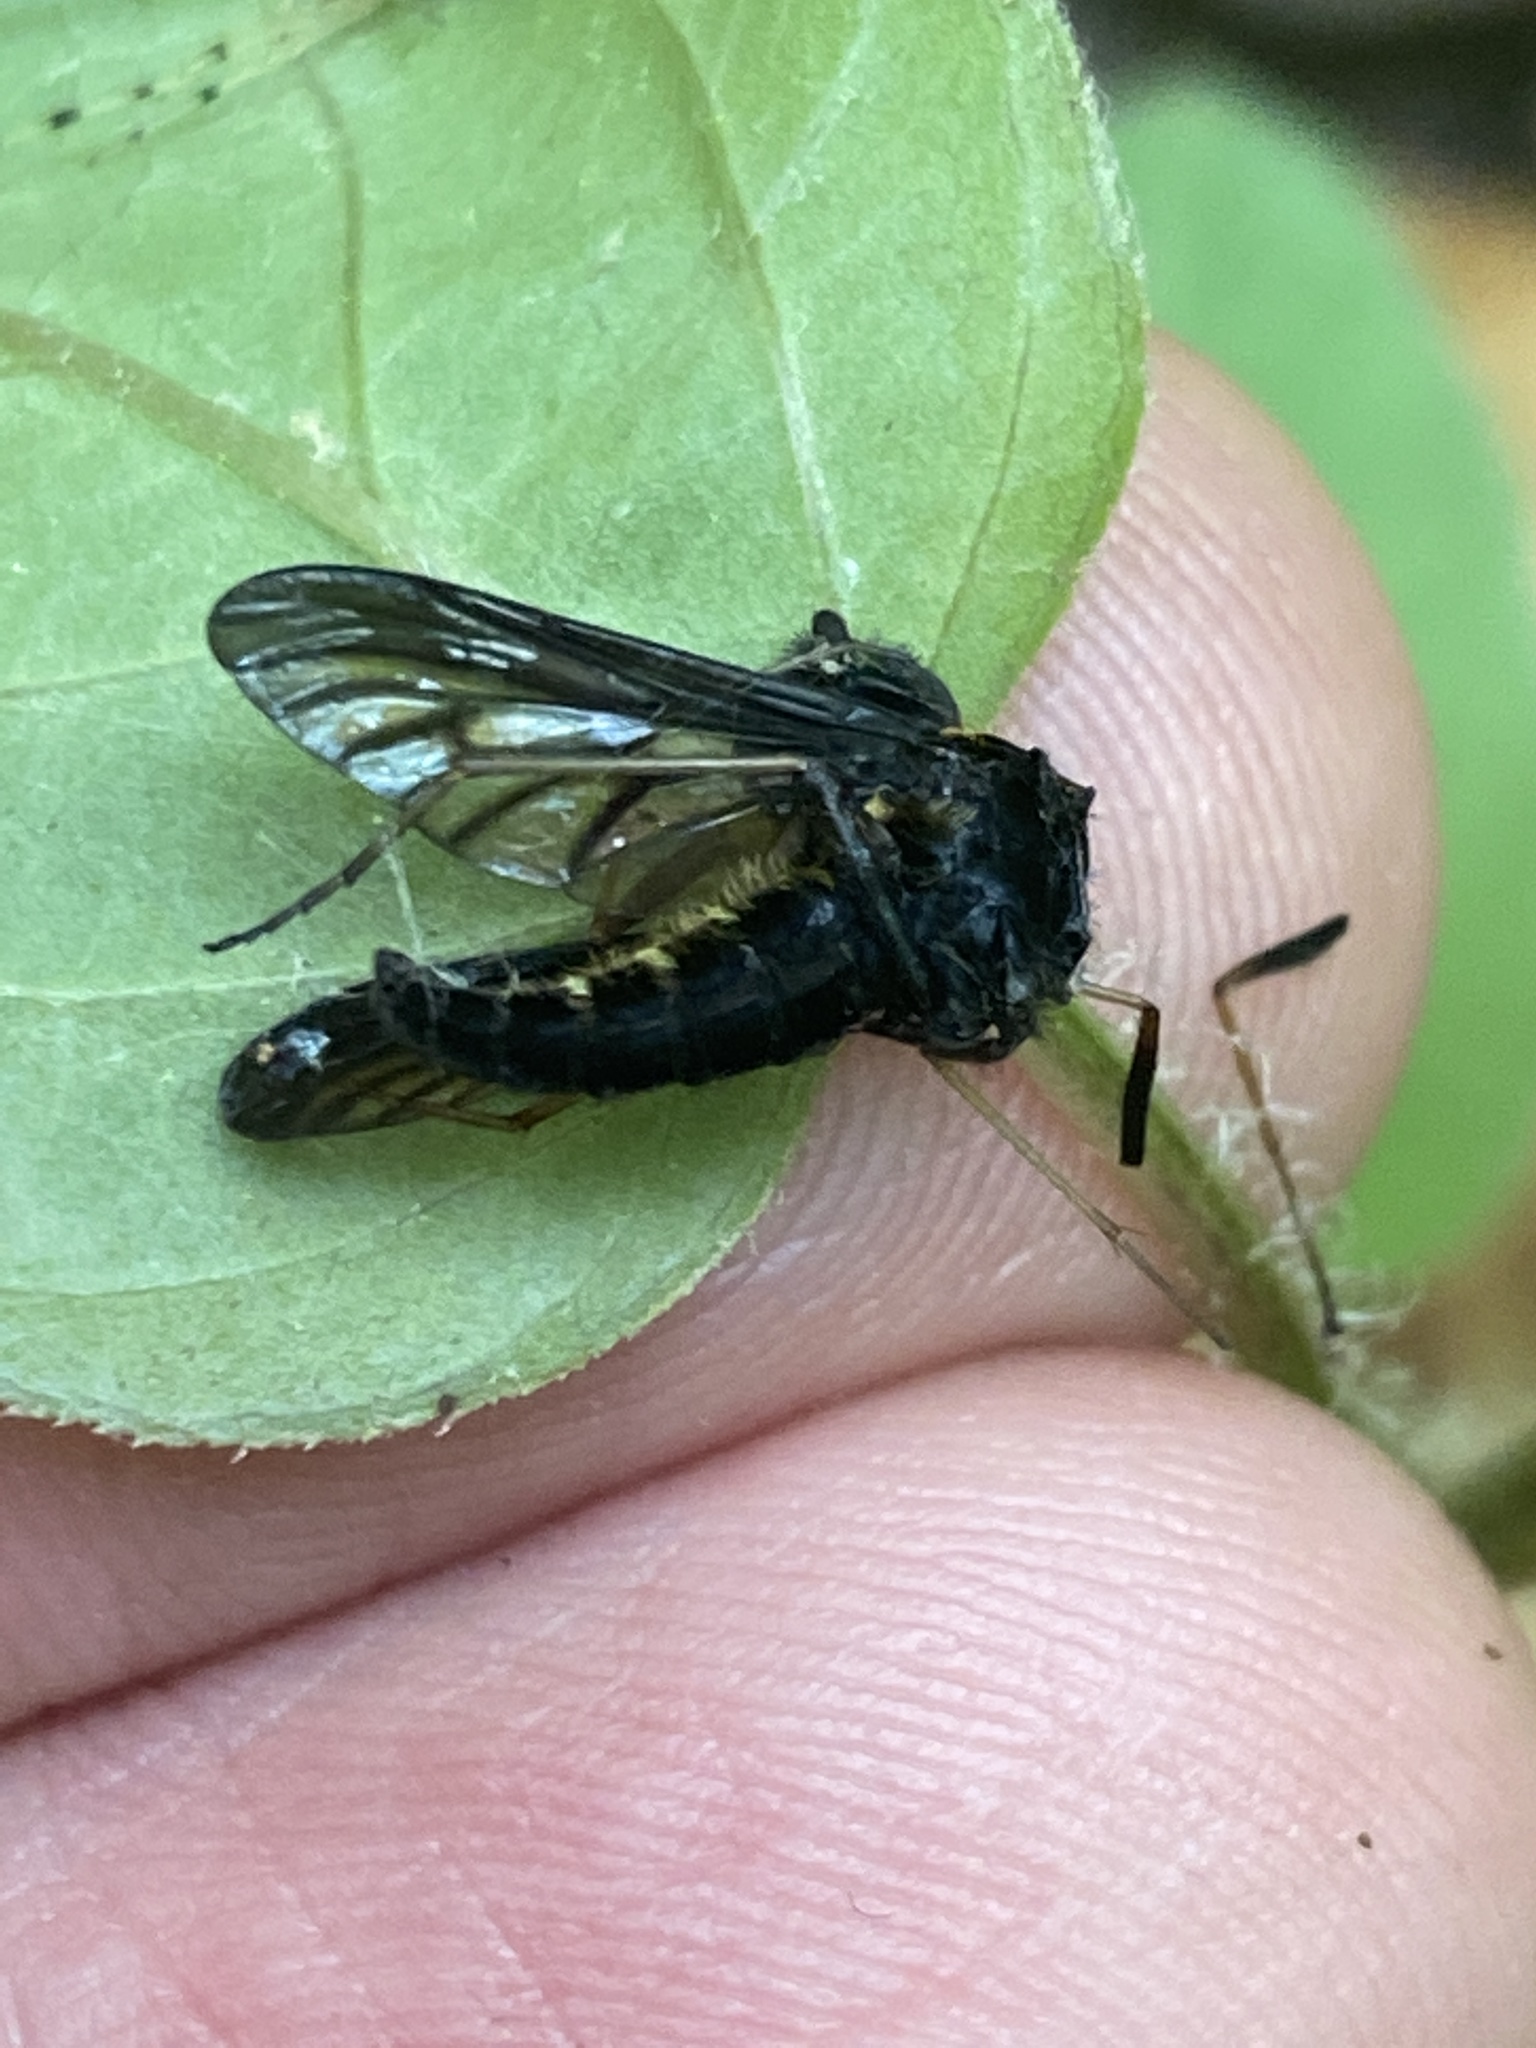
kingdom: Animalia
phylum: Arthropoda
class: Insecta
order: Diptera
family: Rhagionidae
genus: Chrysopilus
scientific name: Chrysopilus thoracicus
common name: Golden-backed snipe fly
